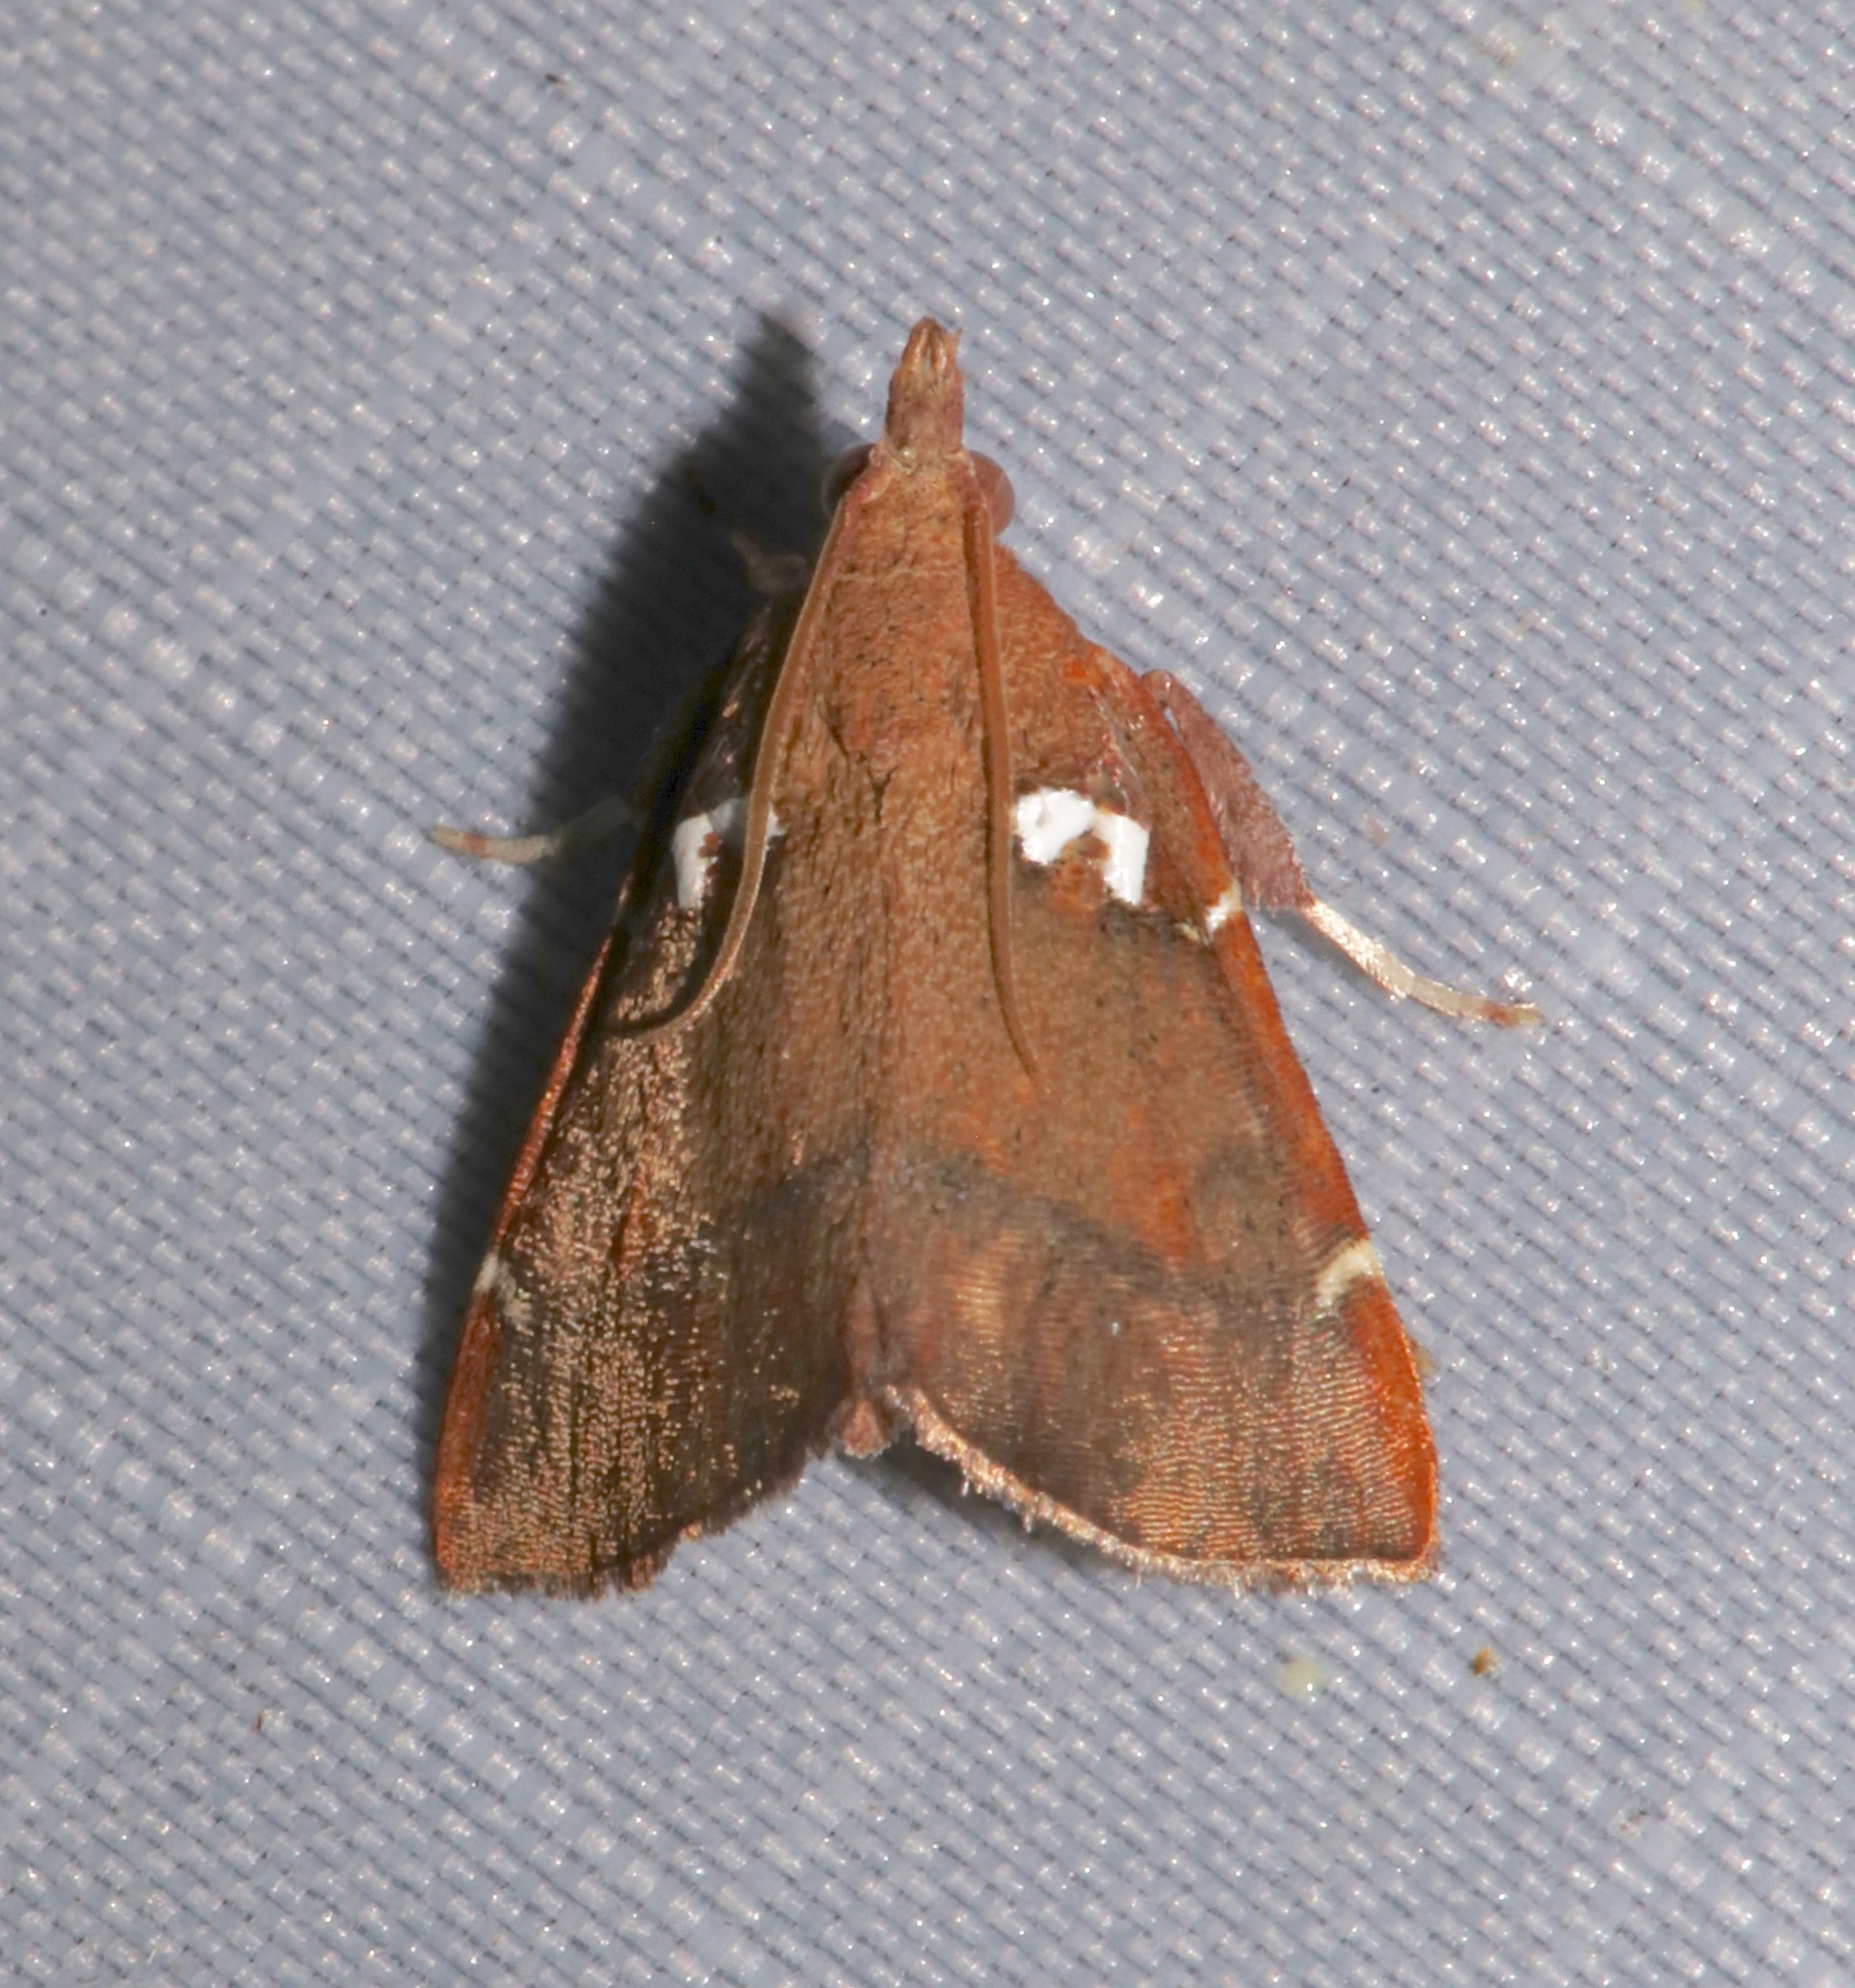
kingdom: Animalia
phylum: Arthropoda
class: Insecta
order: Lepidoptera
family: Pyralidae
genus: Lepidomys
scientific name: Lepidomys irrenosa
